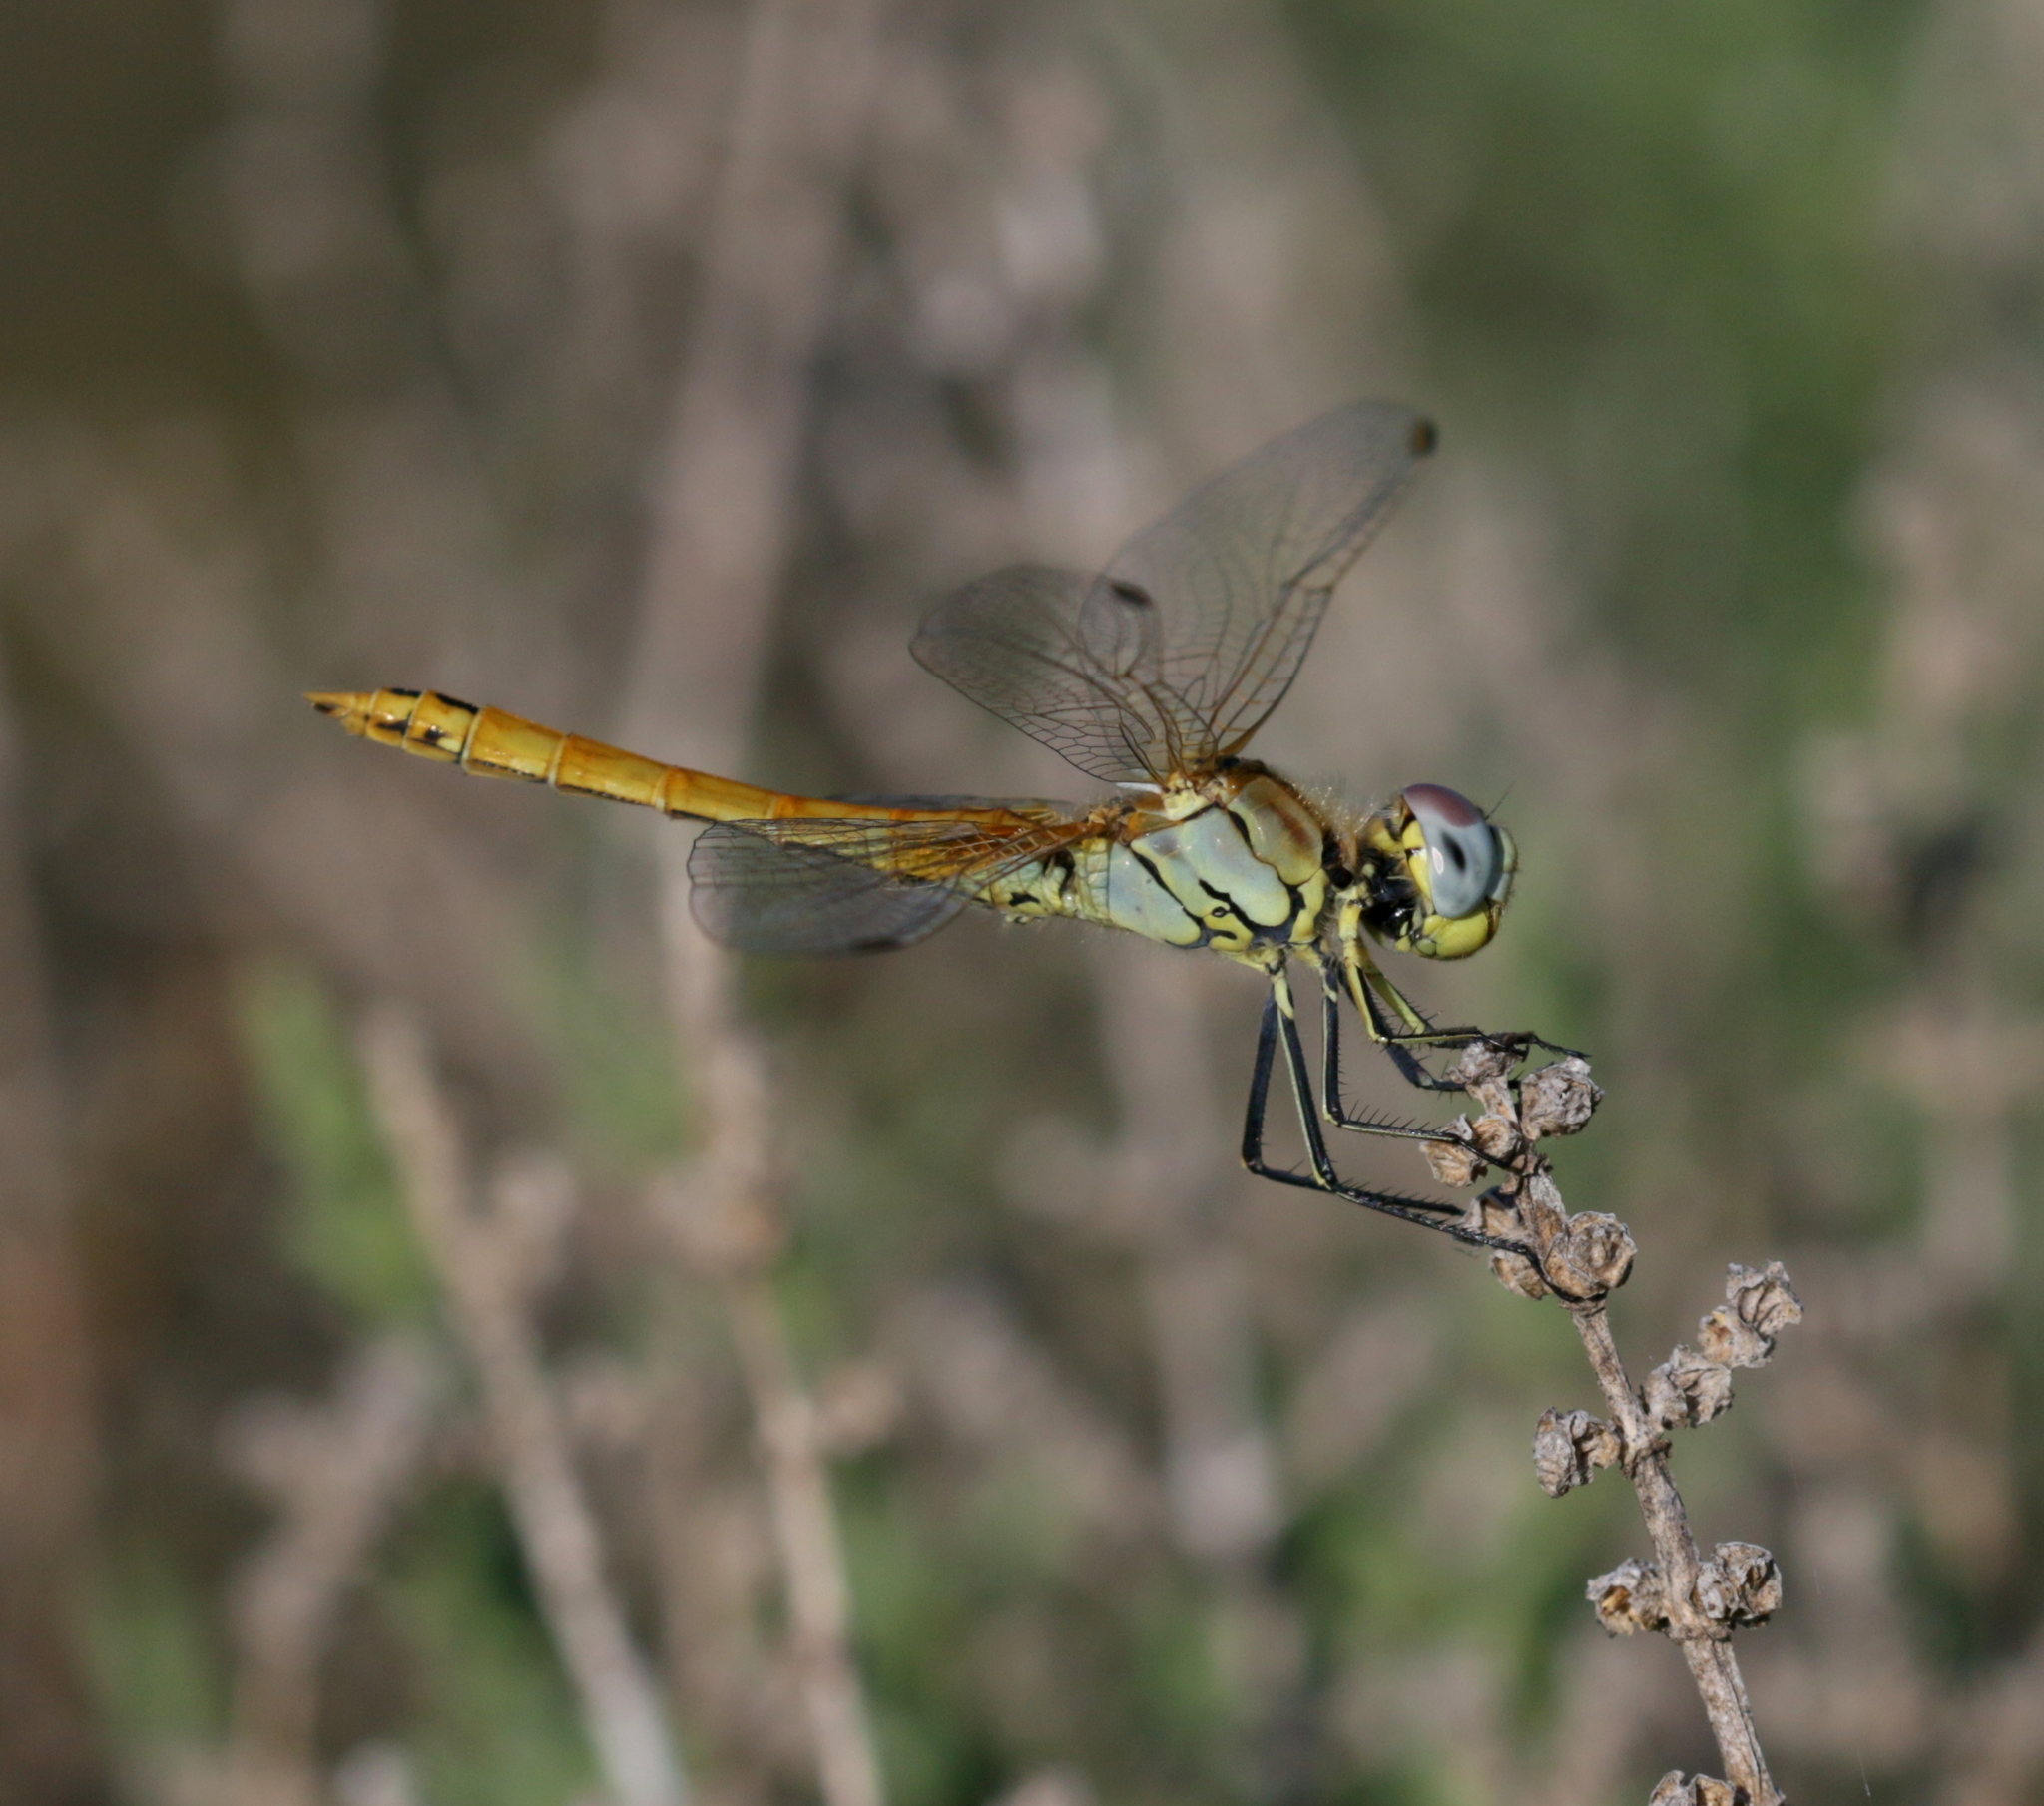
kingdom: Animalia
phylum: Arthropoda
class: Insecta
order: Odonata
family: Libellulidae
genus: Sympetrum
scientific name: Sympetrum fonscolombii
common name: Red-veined darter
